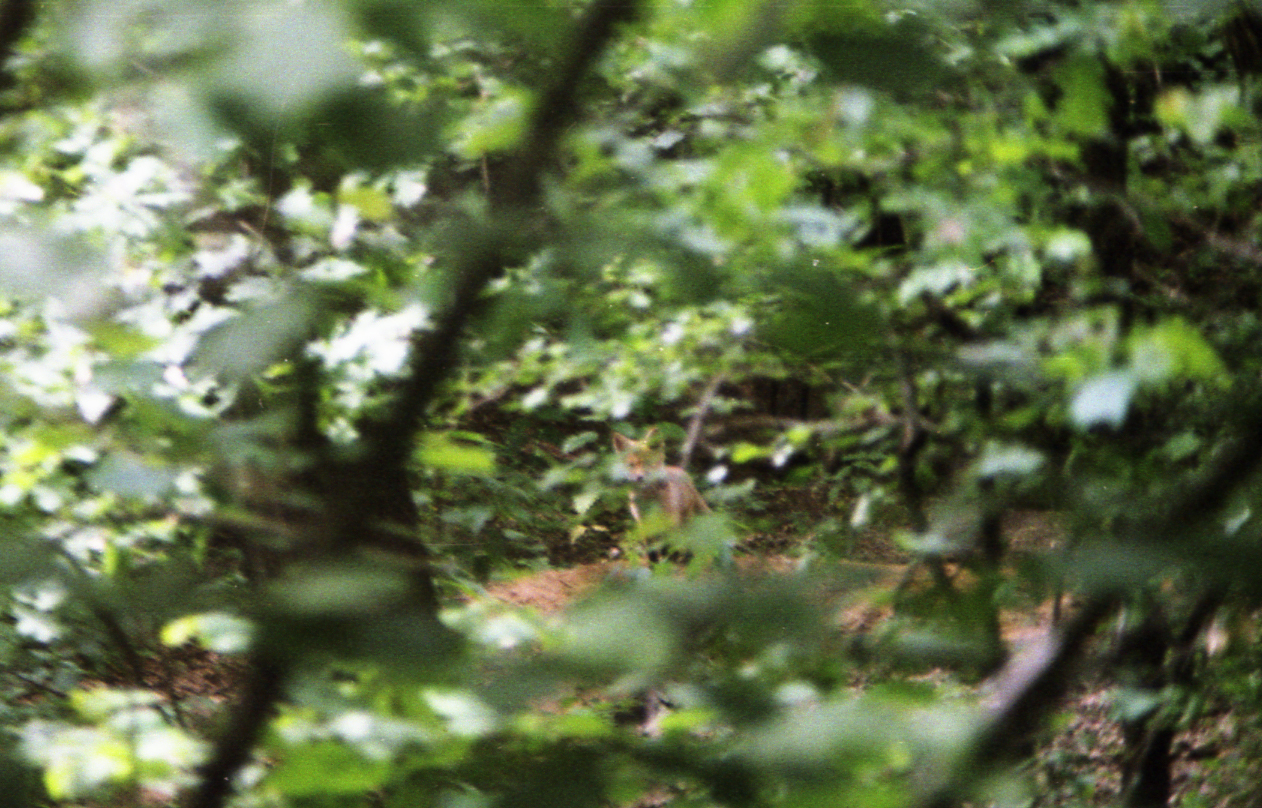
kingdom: Animalia
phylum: Chordata
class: Mammalia
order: Carnivora
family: Canidae
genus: Vulpes
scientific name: Vulpes vulpes
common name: Red fox
